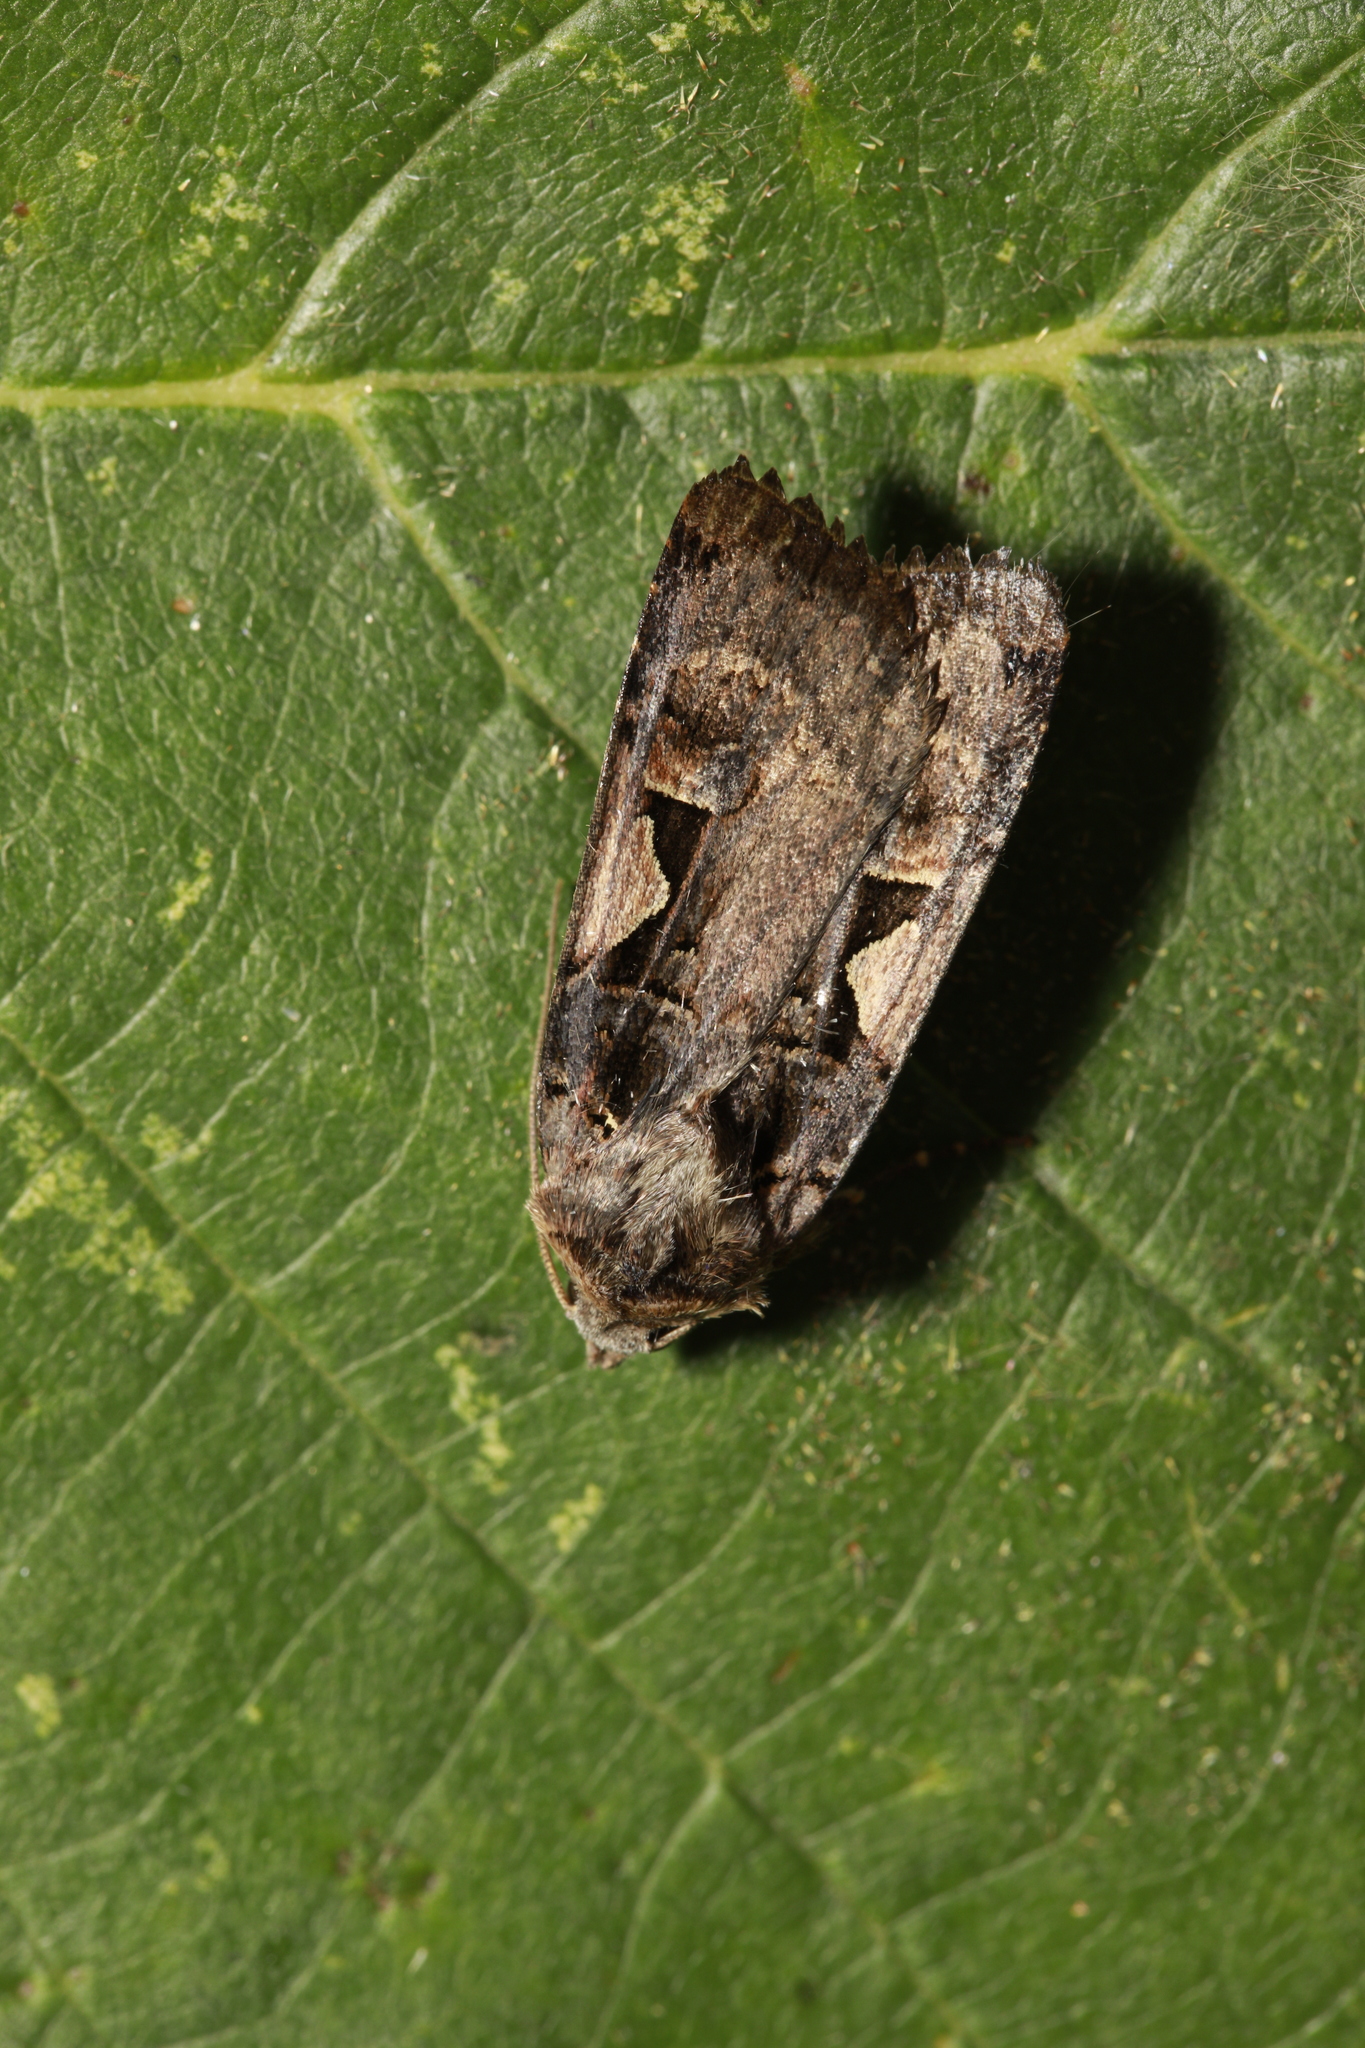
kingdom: Animalia
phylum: Arthropoda
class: Insecta
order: Lepidoptera
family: Noctuidae
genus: Xestia
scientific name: Xestia c-nigrum
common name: Setaceous hebrew character
